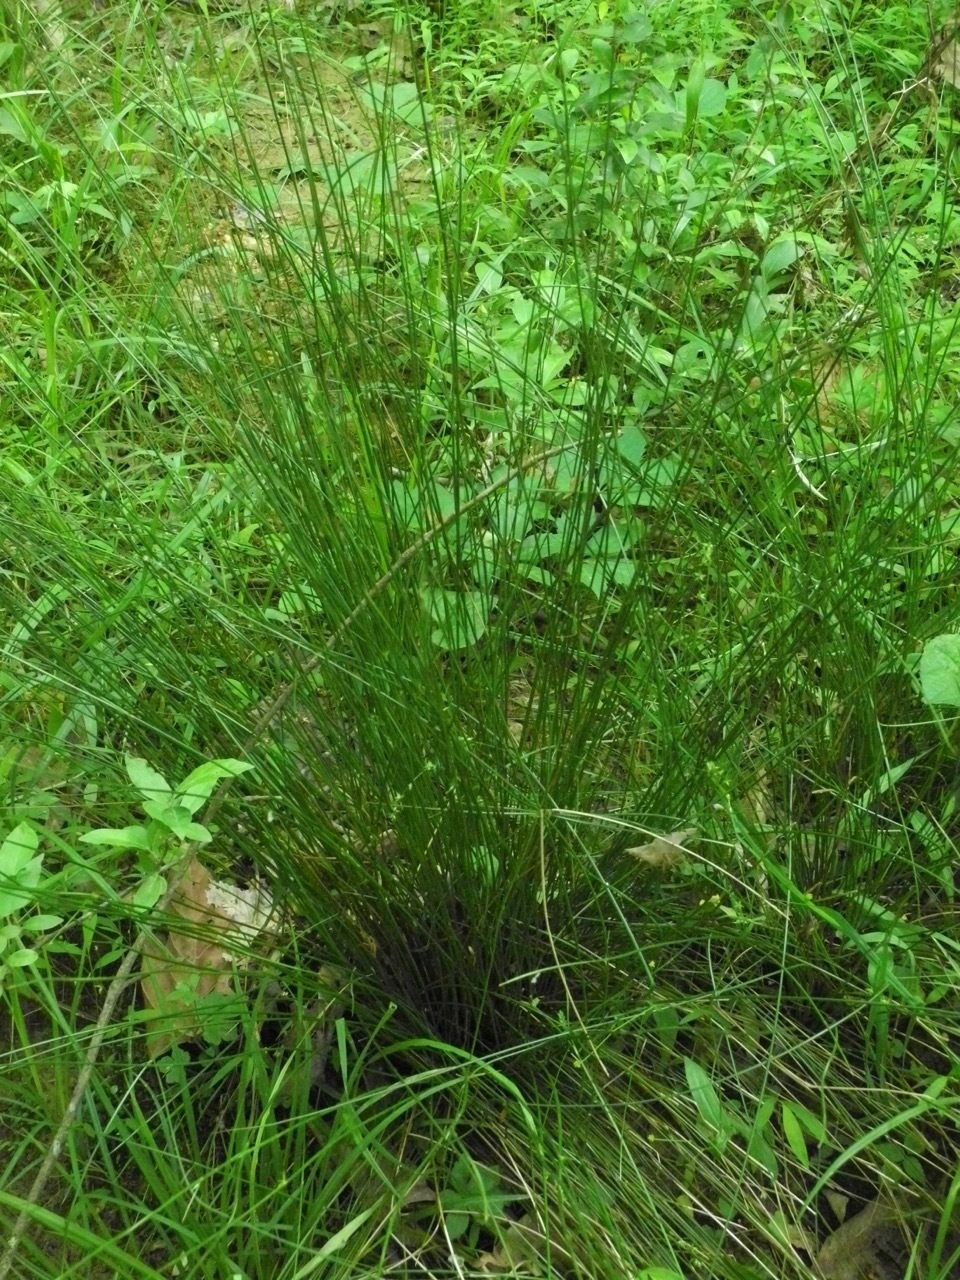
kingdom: Plantae
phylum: Tracheophyta
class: Liliopsida
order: Poales
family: Juncaceae
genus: Juncus
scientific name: Juncus effusus
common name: Soft rush
